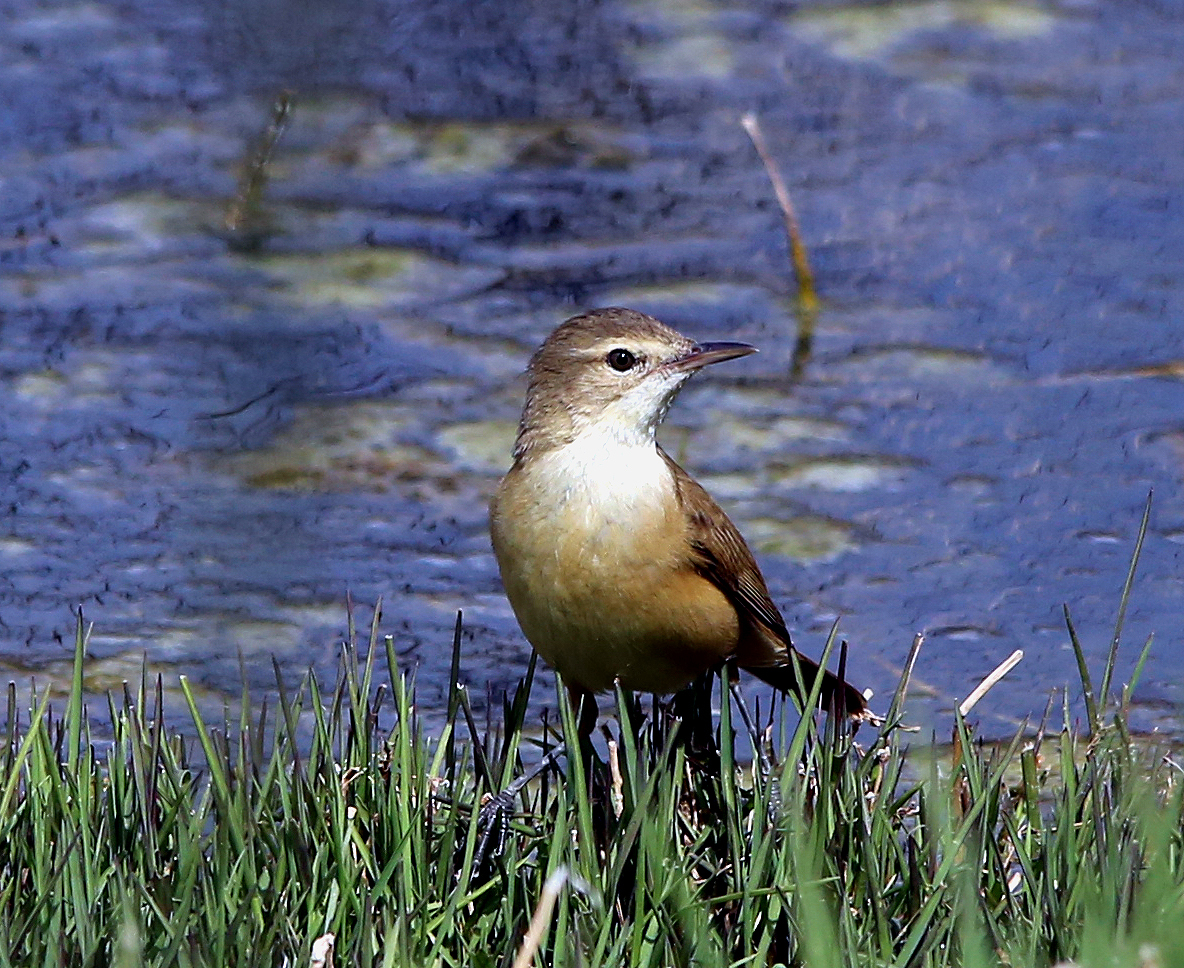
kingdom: Animalia
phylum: Chordata
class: Aves
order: Passeriformes
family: Acrocephalidae
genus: Acrocephalus
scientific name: Acrocephalus australis
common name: Australian reed warbler
